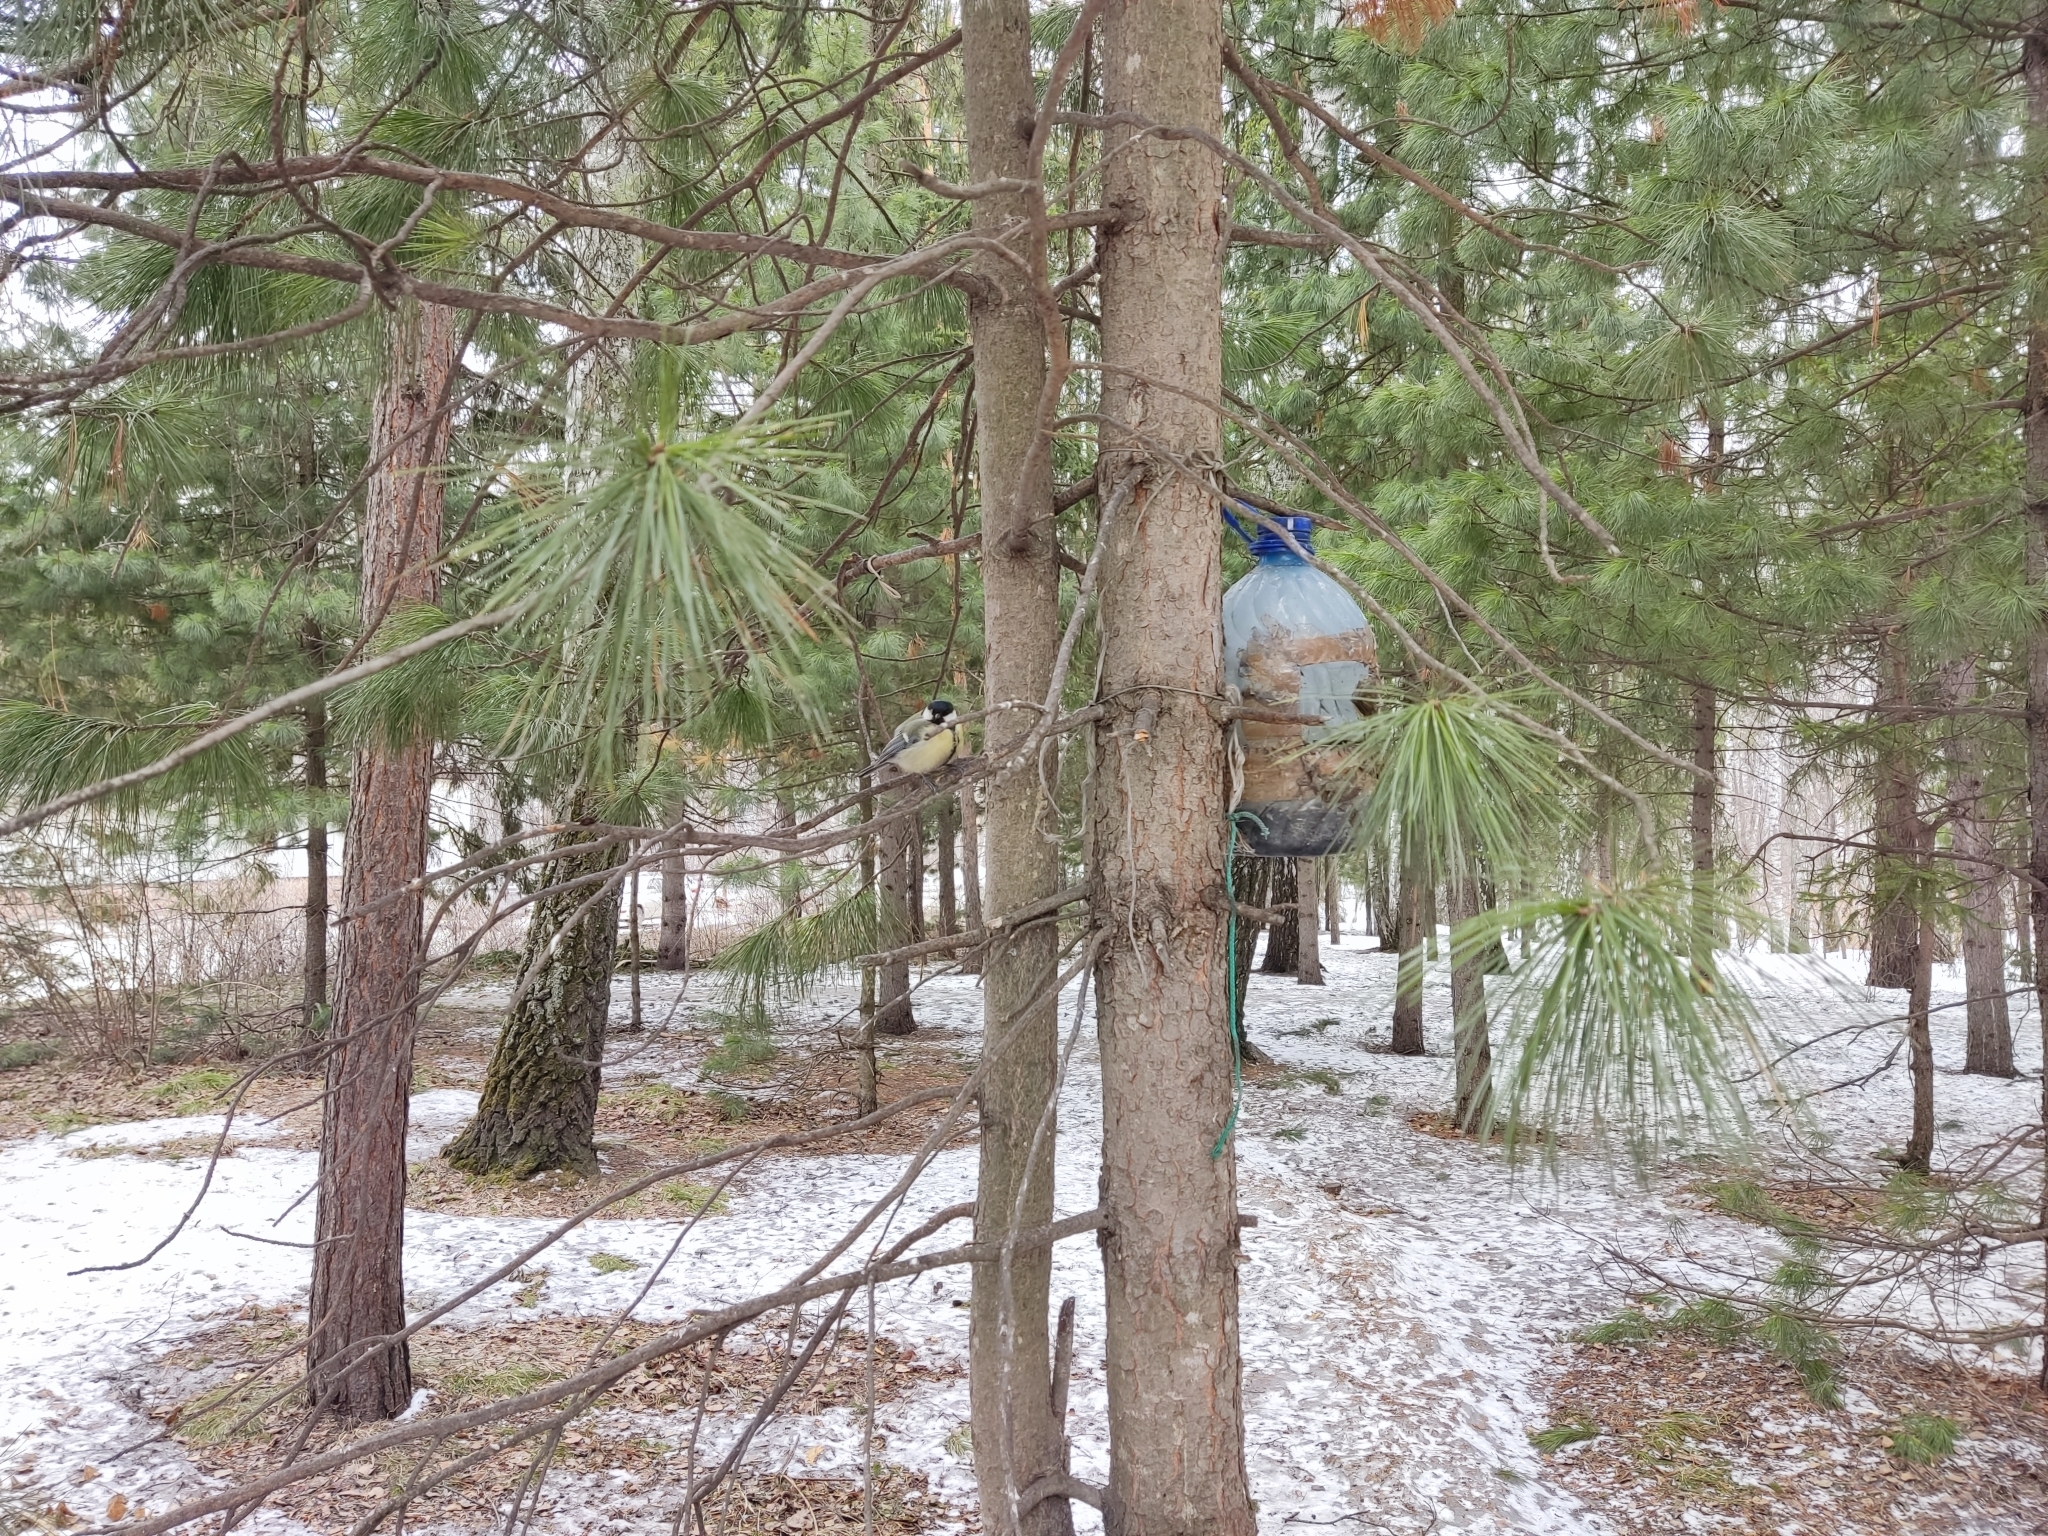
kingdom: Animalia
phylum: Chordata
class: Aves
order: Passeriformes
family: Paridae
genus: Parus
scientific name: Parus major
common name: Great tit
